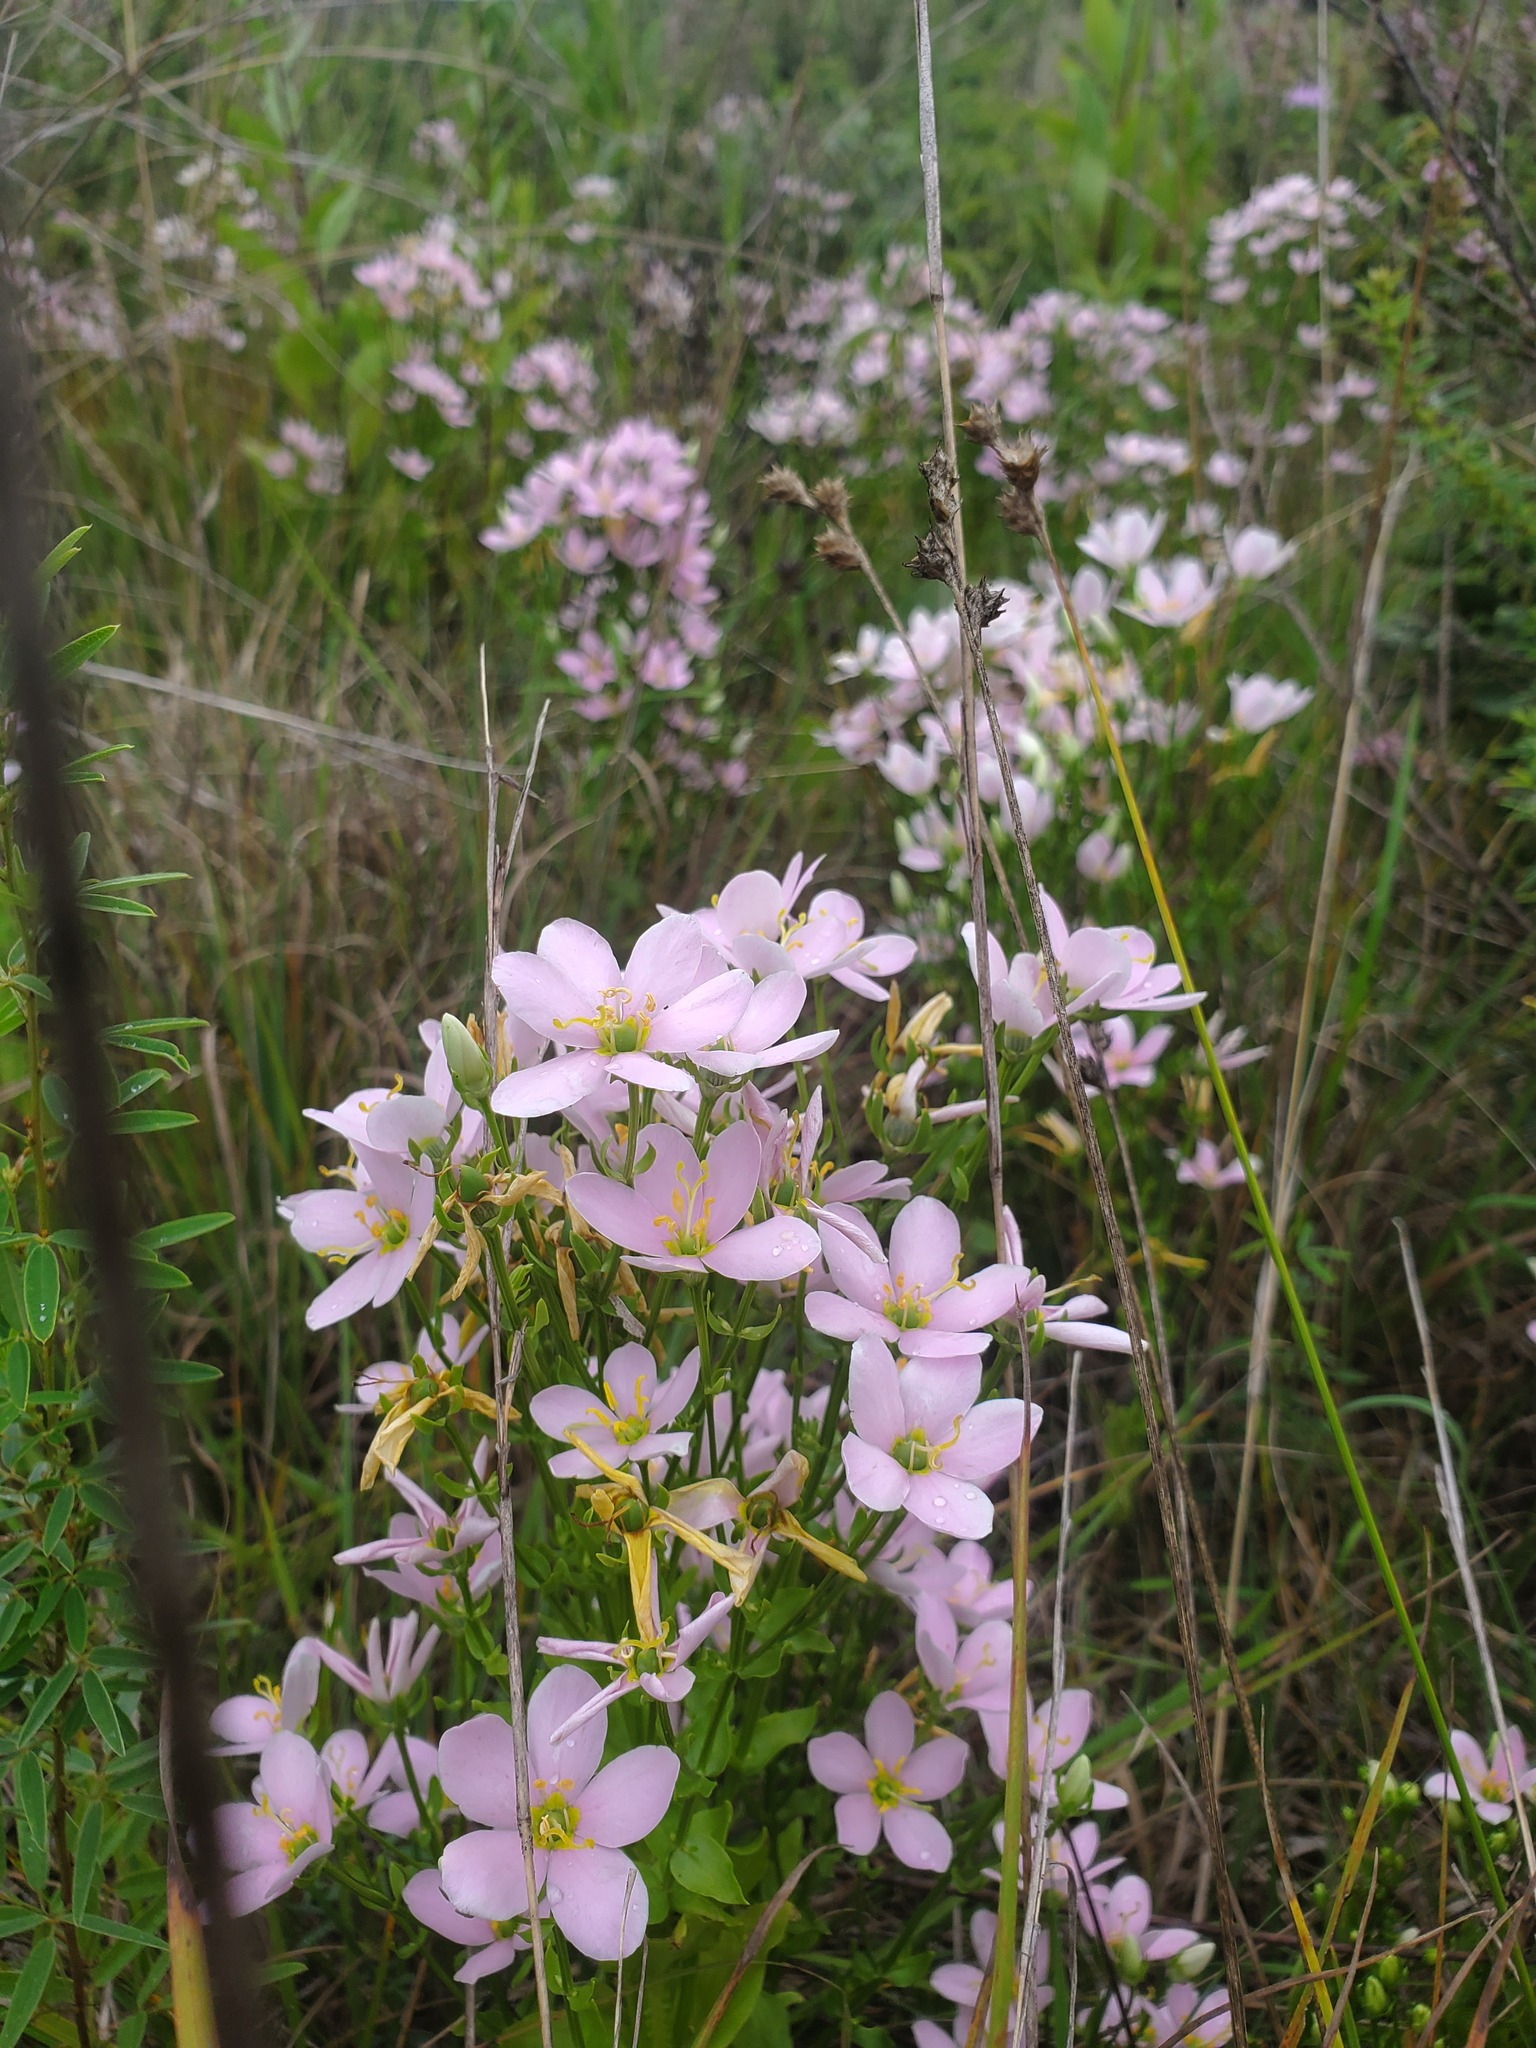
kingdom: Plantae
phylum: Tracheophyta
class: Magnoliopsida
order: Gentianales
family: Gentianaceae
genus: Sabatia
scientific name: Sabatia angularis
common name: Rose-pink
